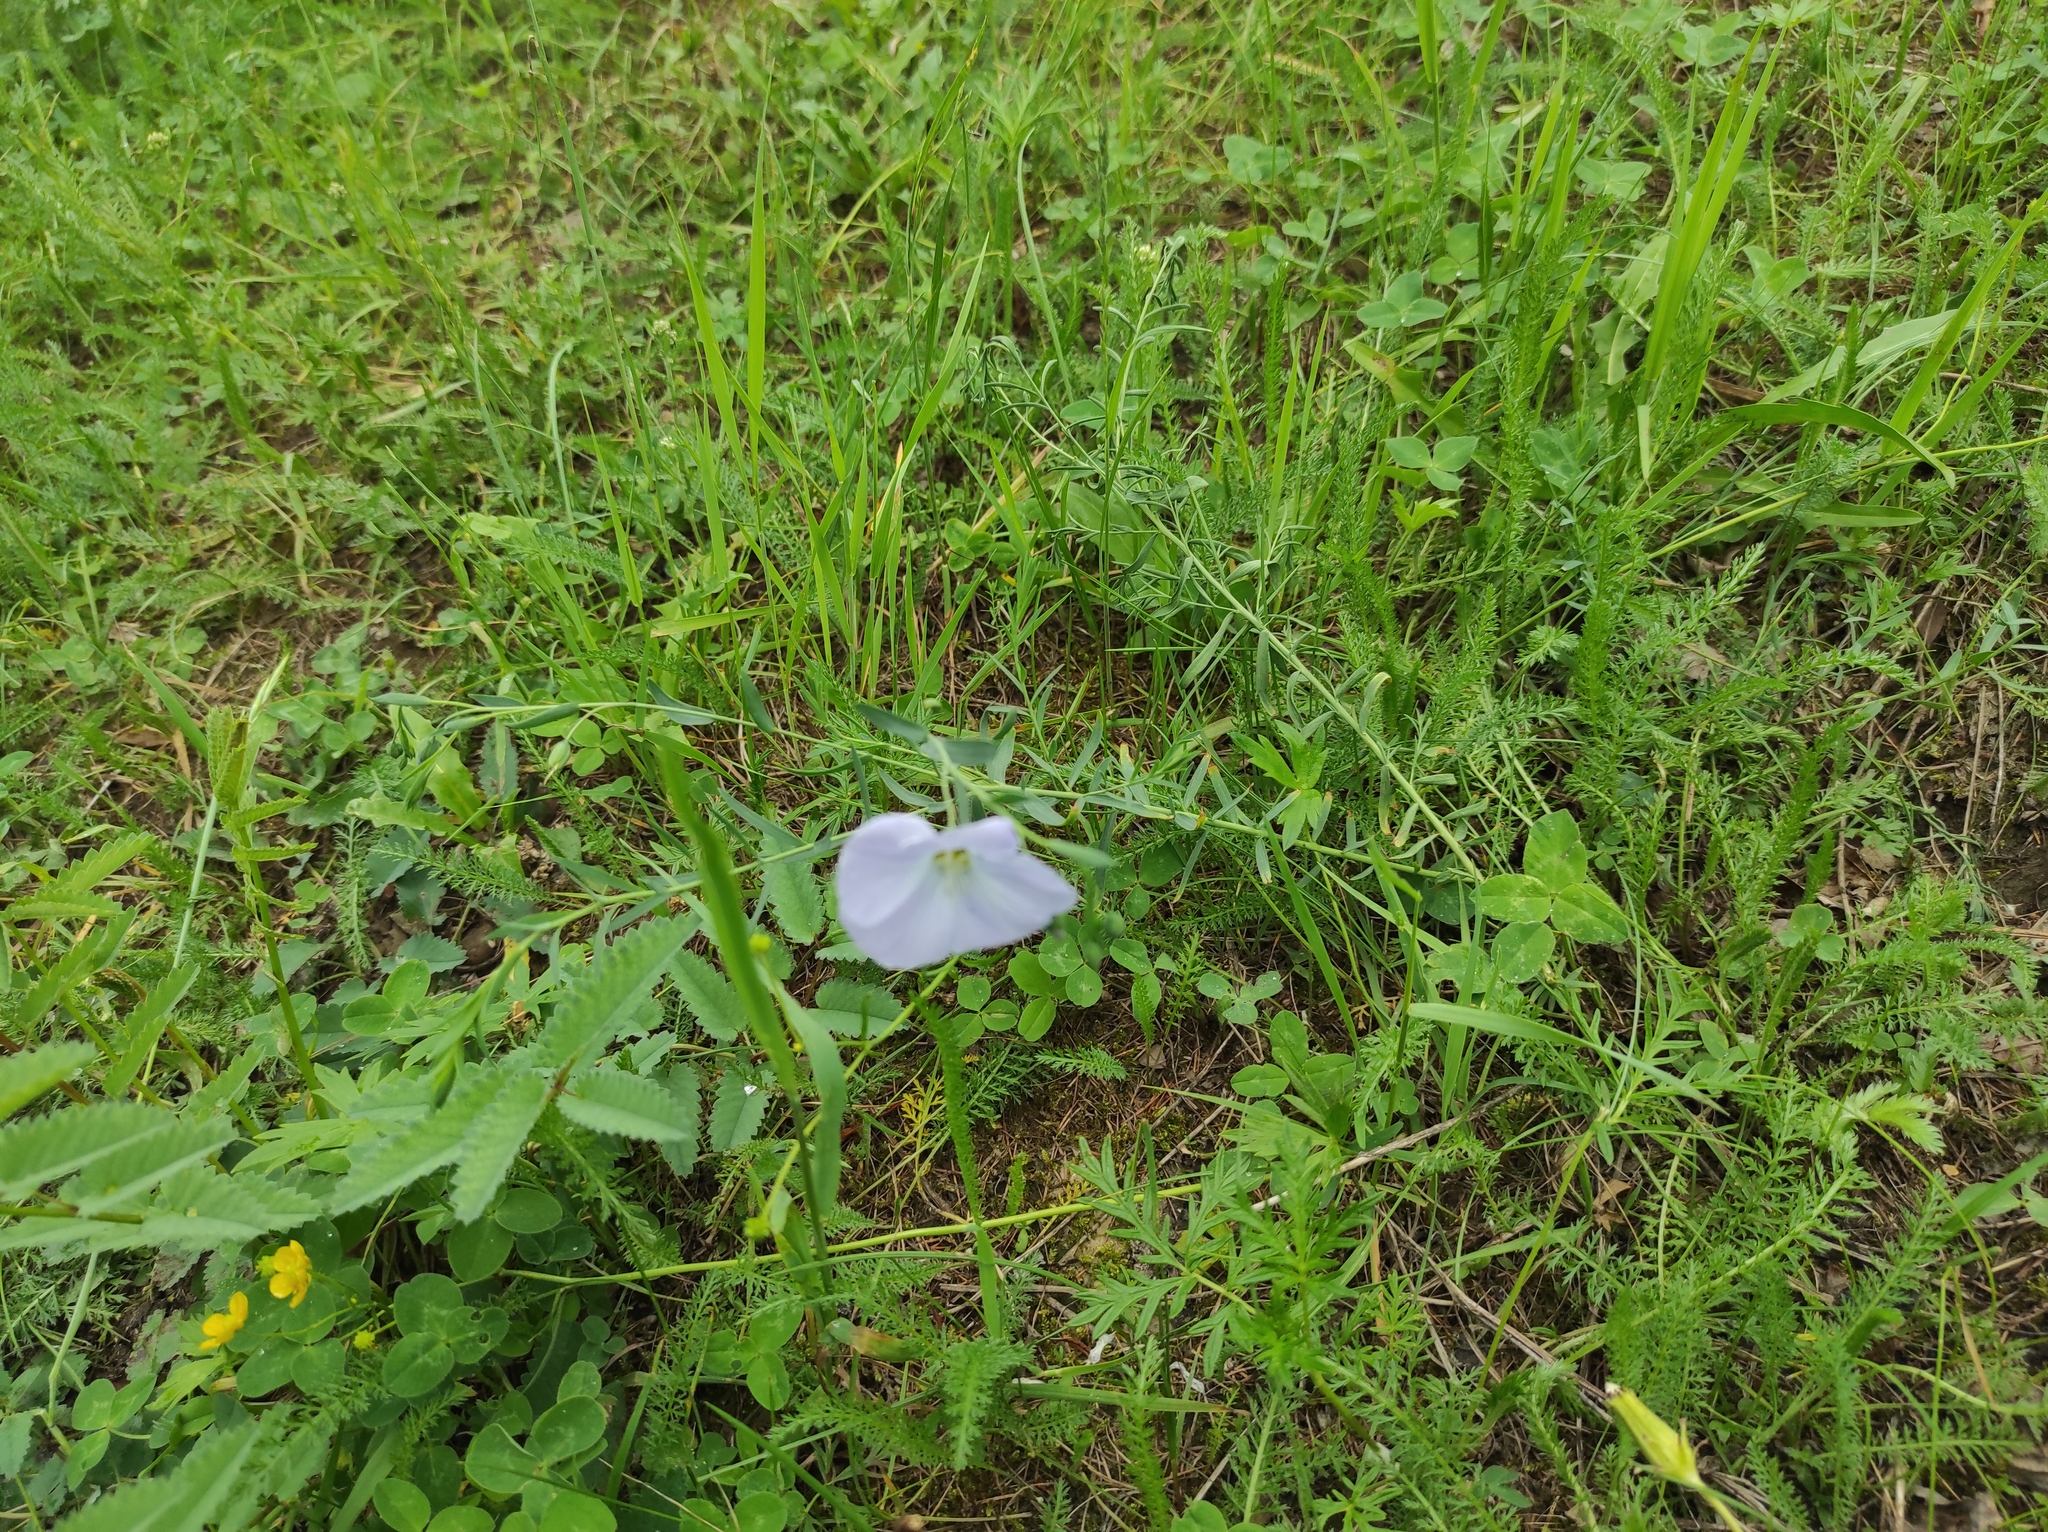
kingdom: Plantae
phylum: Tracheophyta
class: Magnoliopsida
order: Malpighiales
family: Linaceae
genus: Linum
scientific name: Linum komarovii
